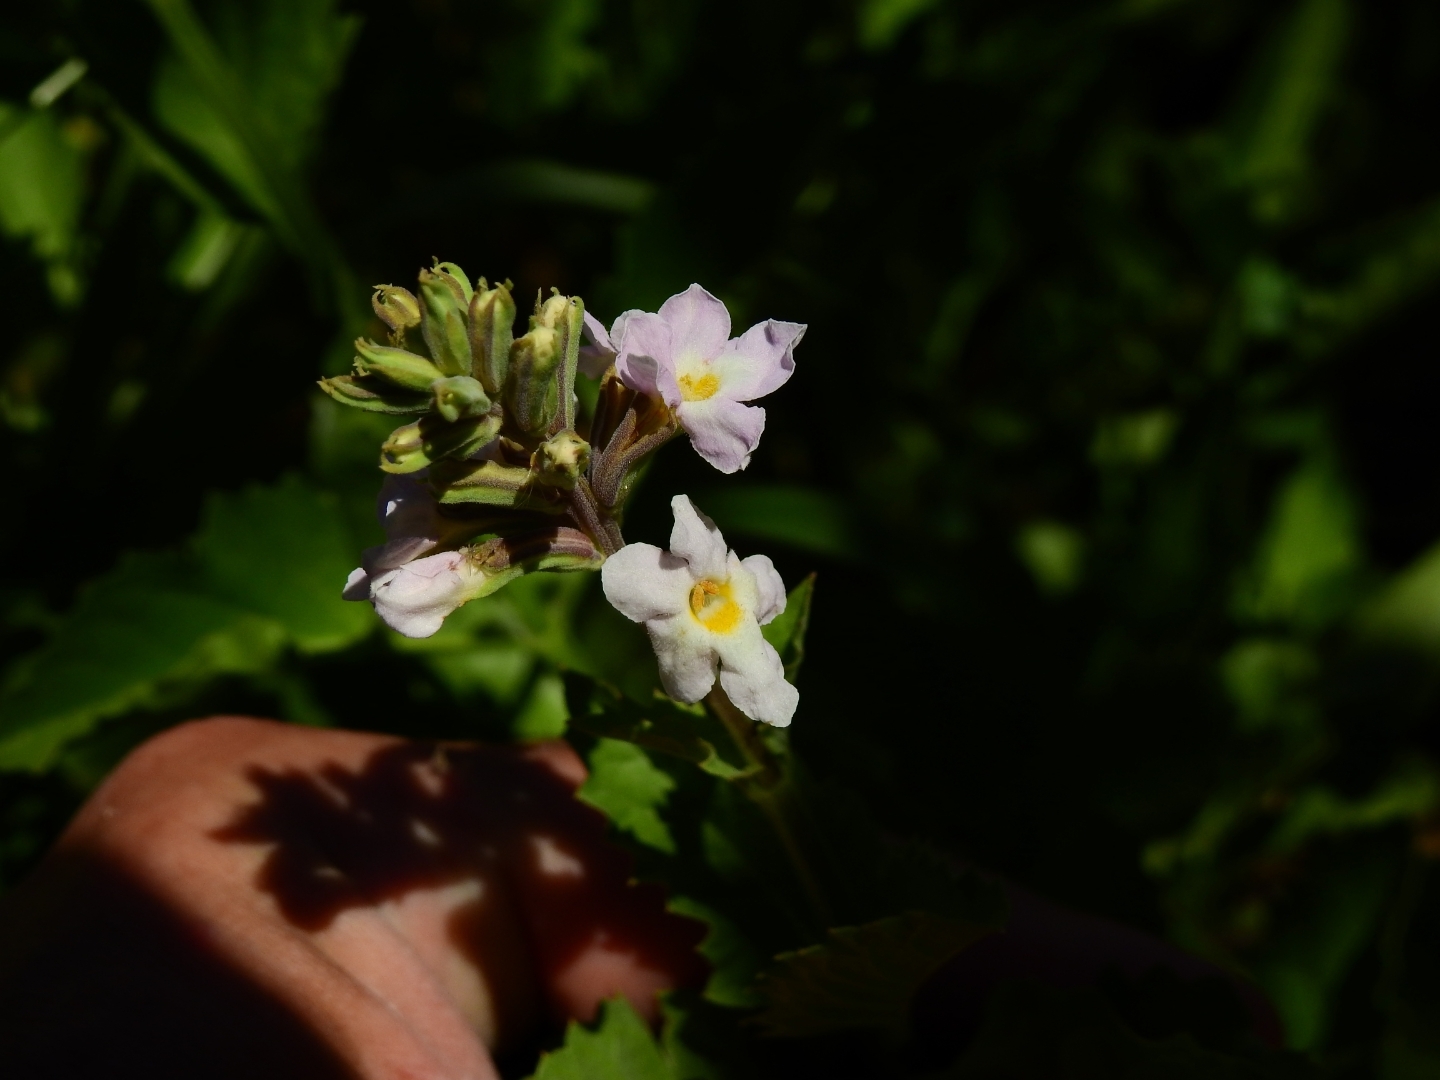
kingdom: Plantae
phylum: Tracheophyta
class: Magnoliopsida
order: Lamiales
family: Verbenaceae
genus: Pitraea
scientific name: Pitraea cuneato-ovata
